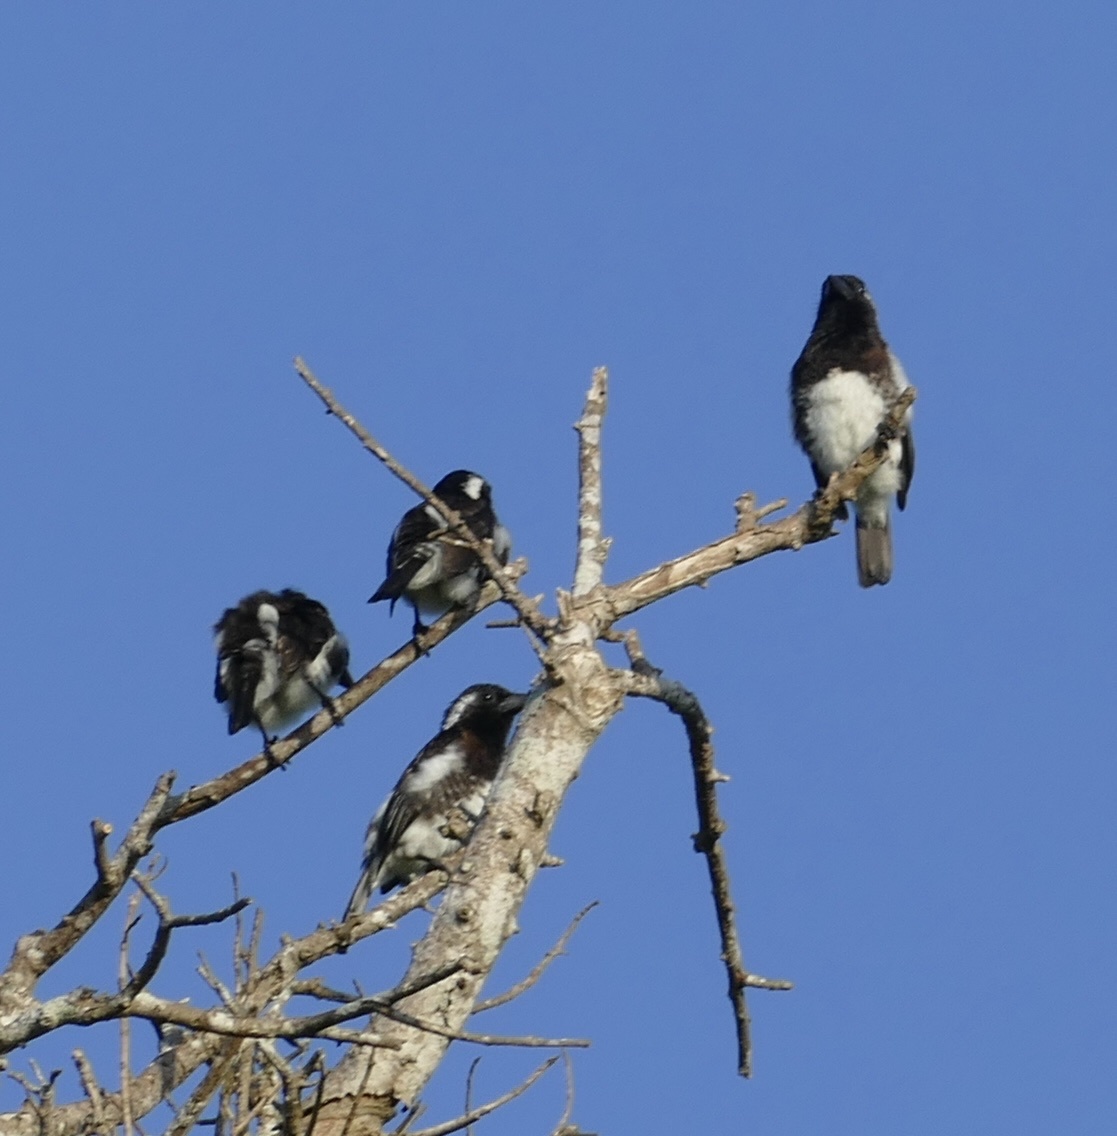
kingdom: Animalia
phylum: Chordata
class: Aves
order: Piciformes
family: Lybiidae
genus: Stactolaema
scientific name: Stactolaema leucotis
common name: White-eared barbet
